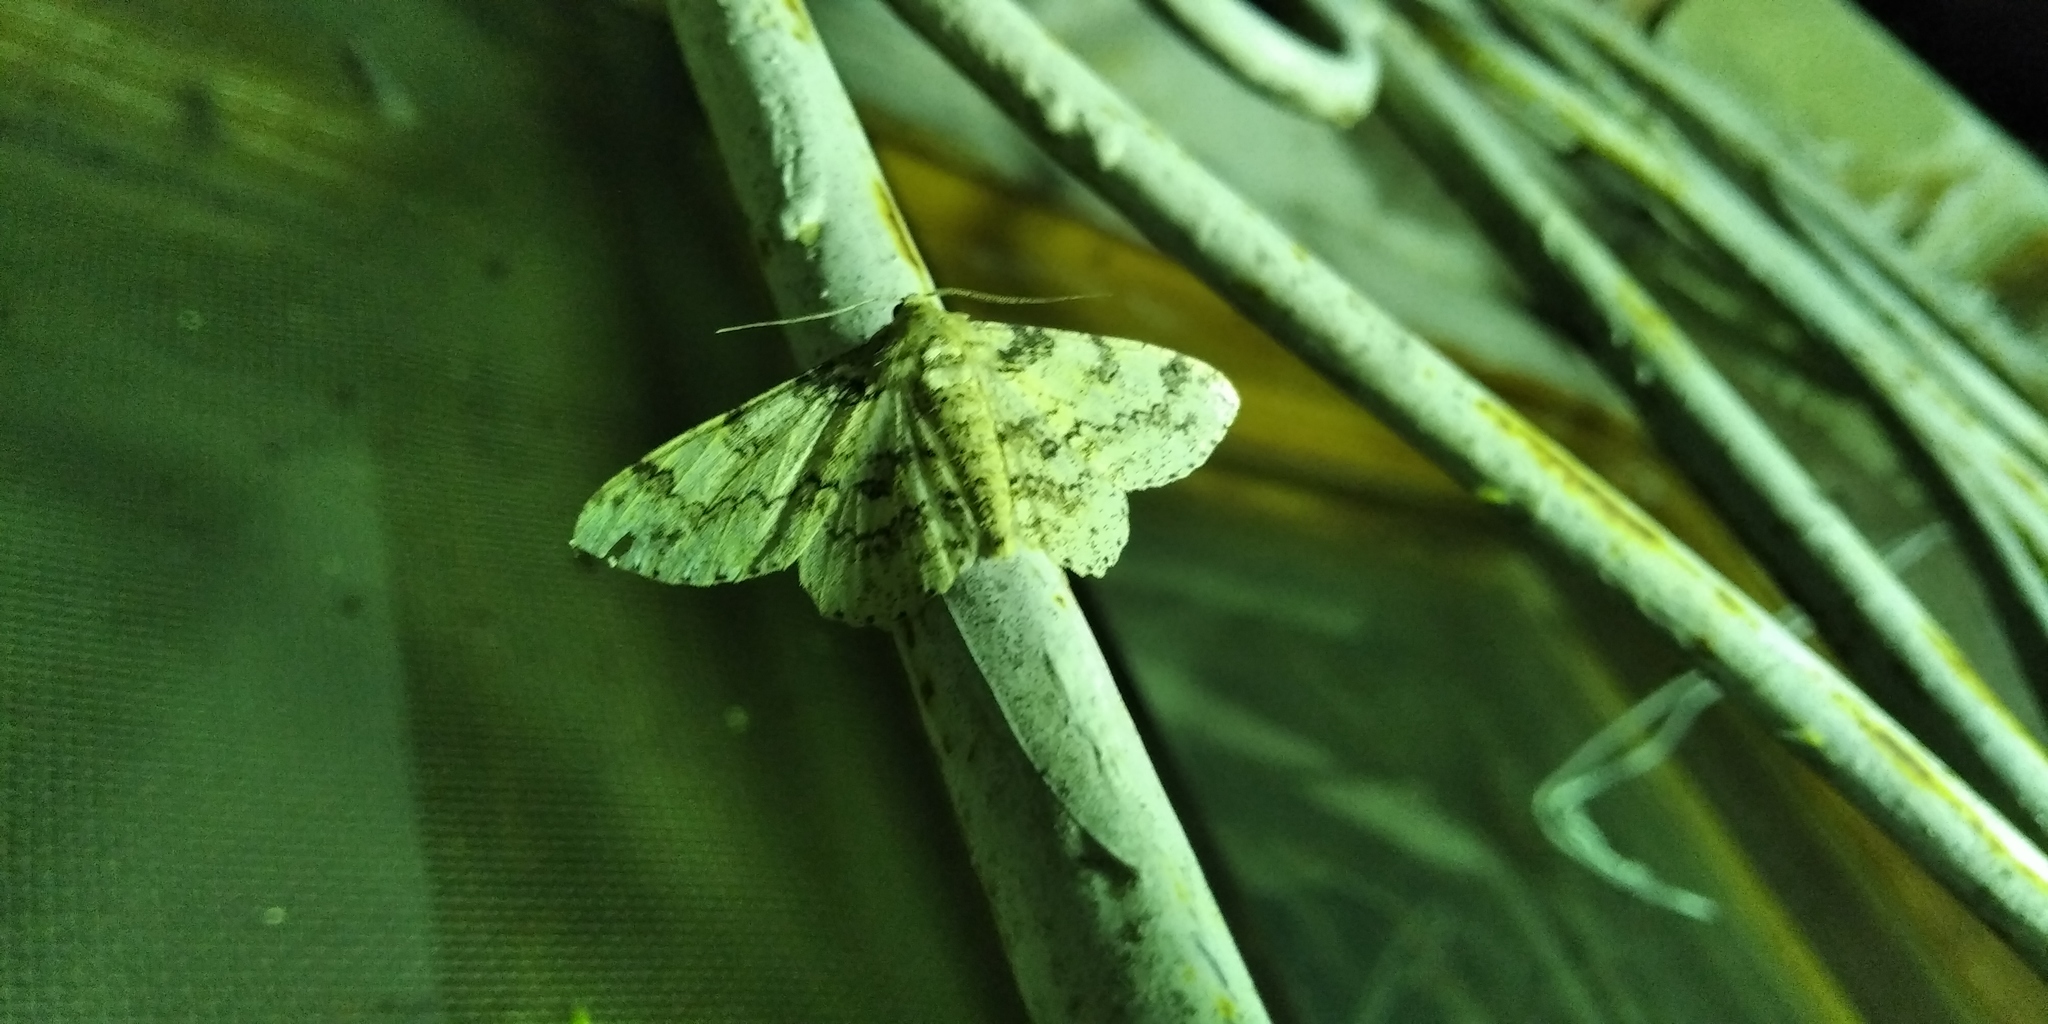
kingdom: Animalia
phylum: Arthropoda
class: Insecta
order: Lepidoptera
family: Geometridae
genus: Ascotis
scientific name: Ascotis selenaria
